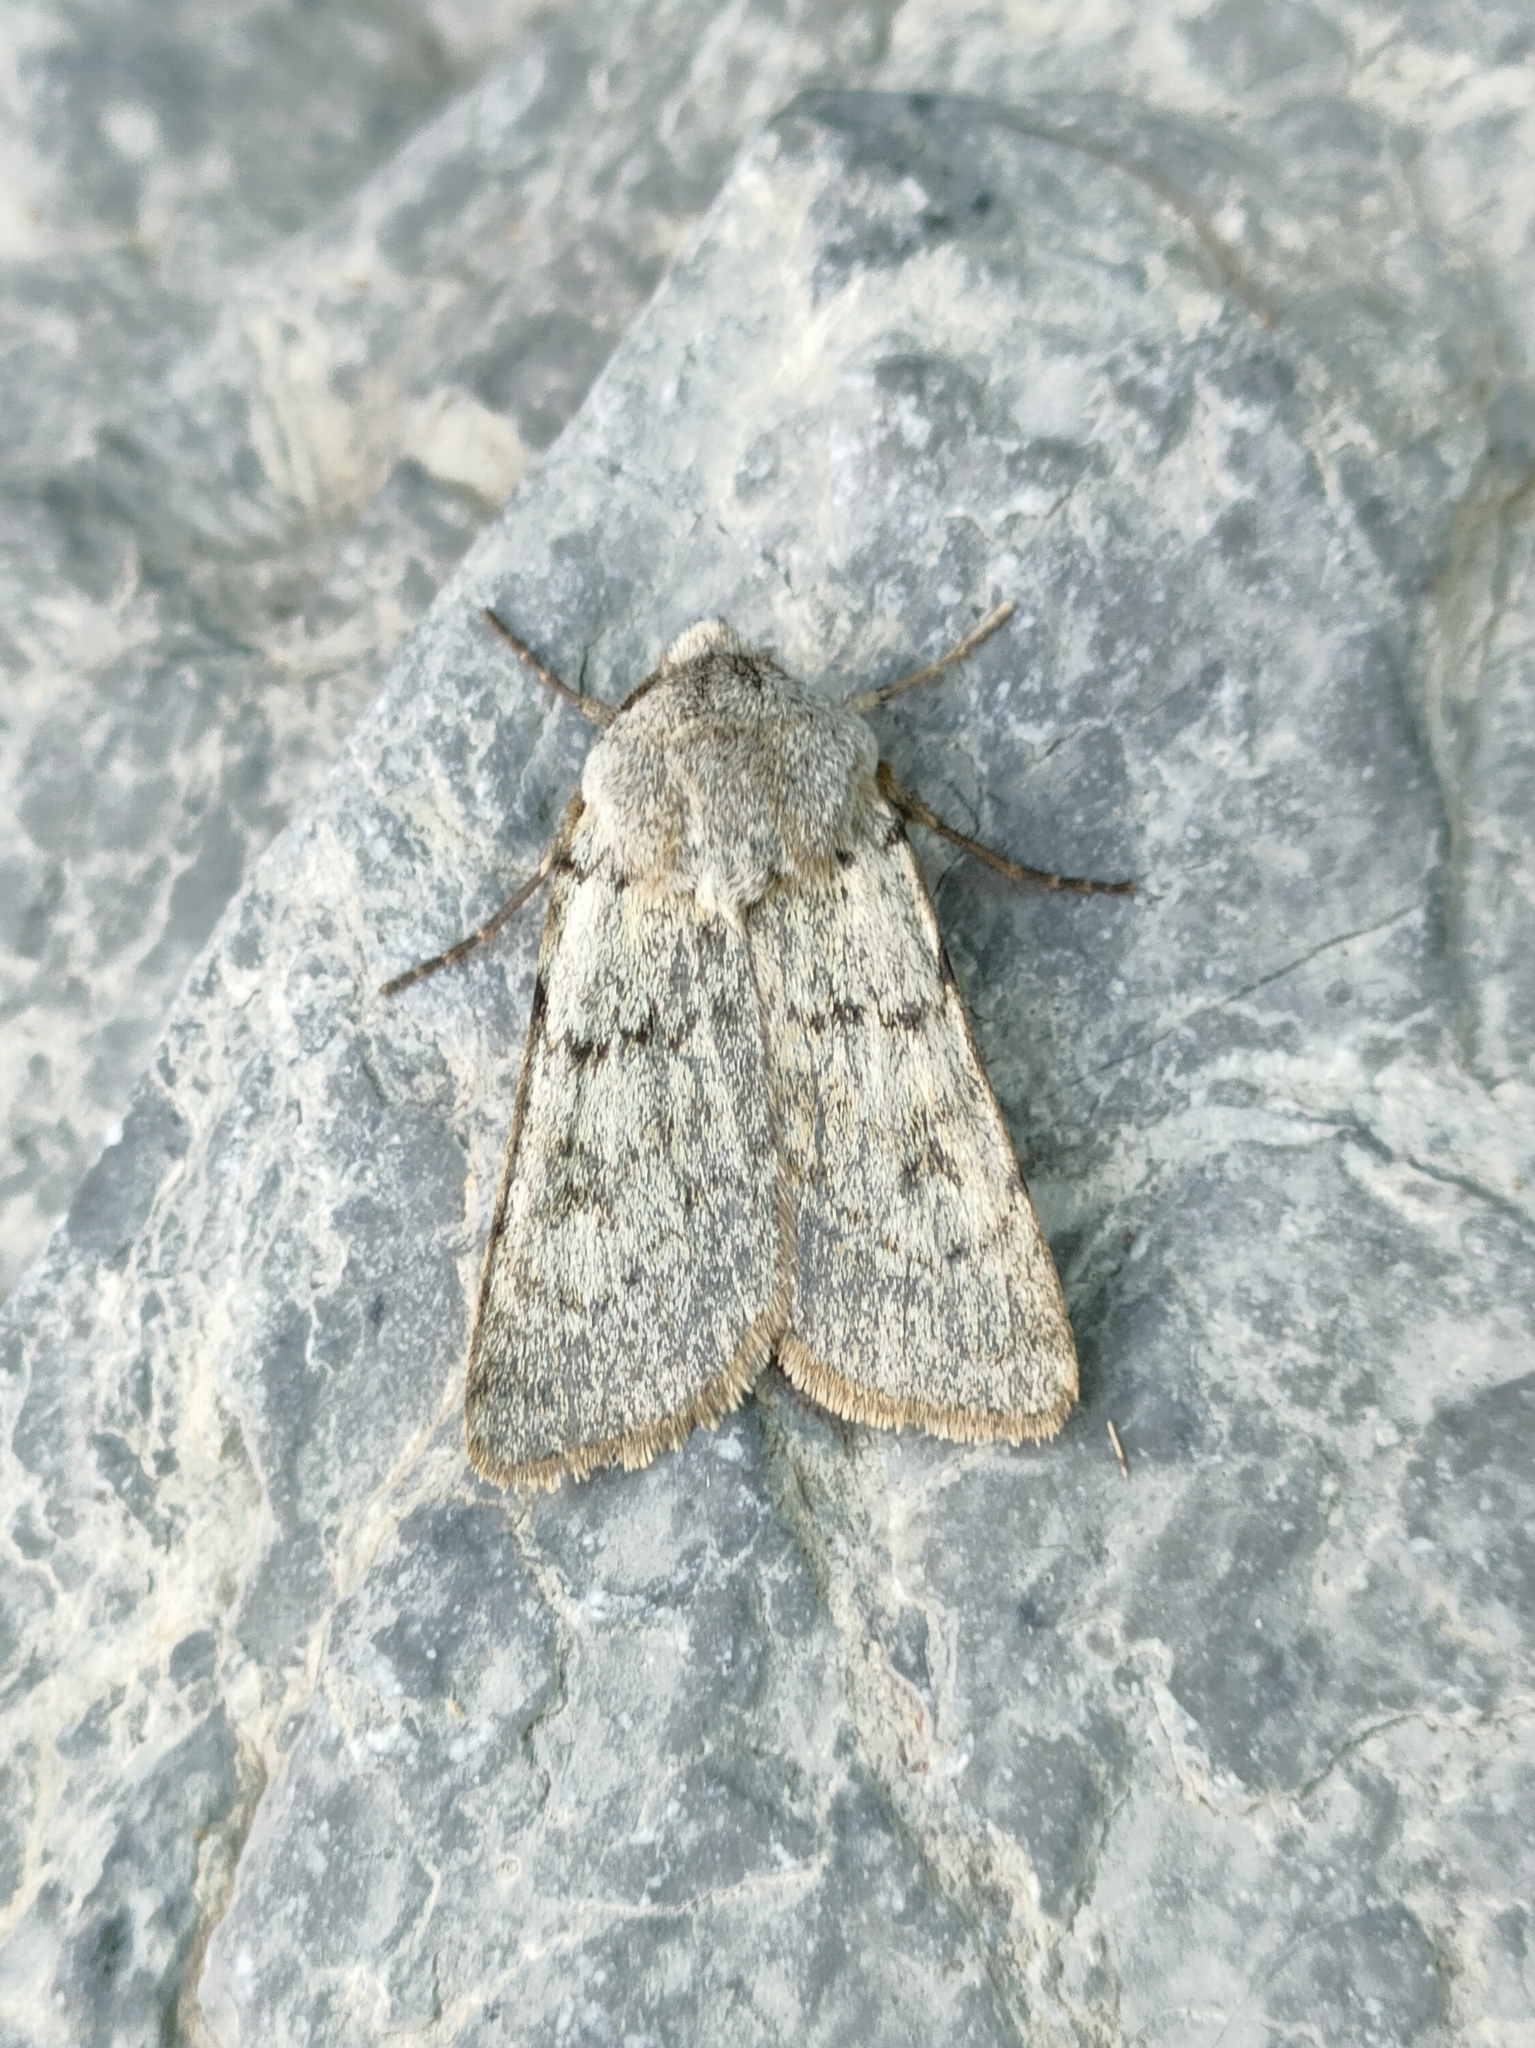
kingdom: Animalia
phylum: Arthropoda
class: Insecta
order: Lepidoptera
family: Noctuidae
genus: Agrotis
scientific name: Agrotis simplonia
